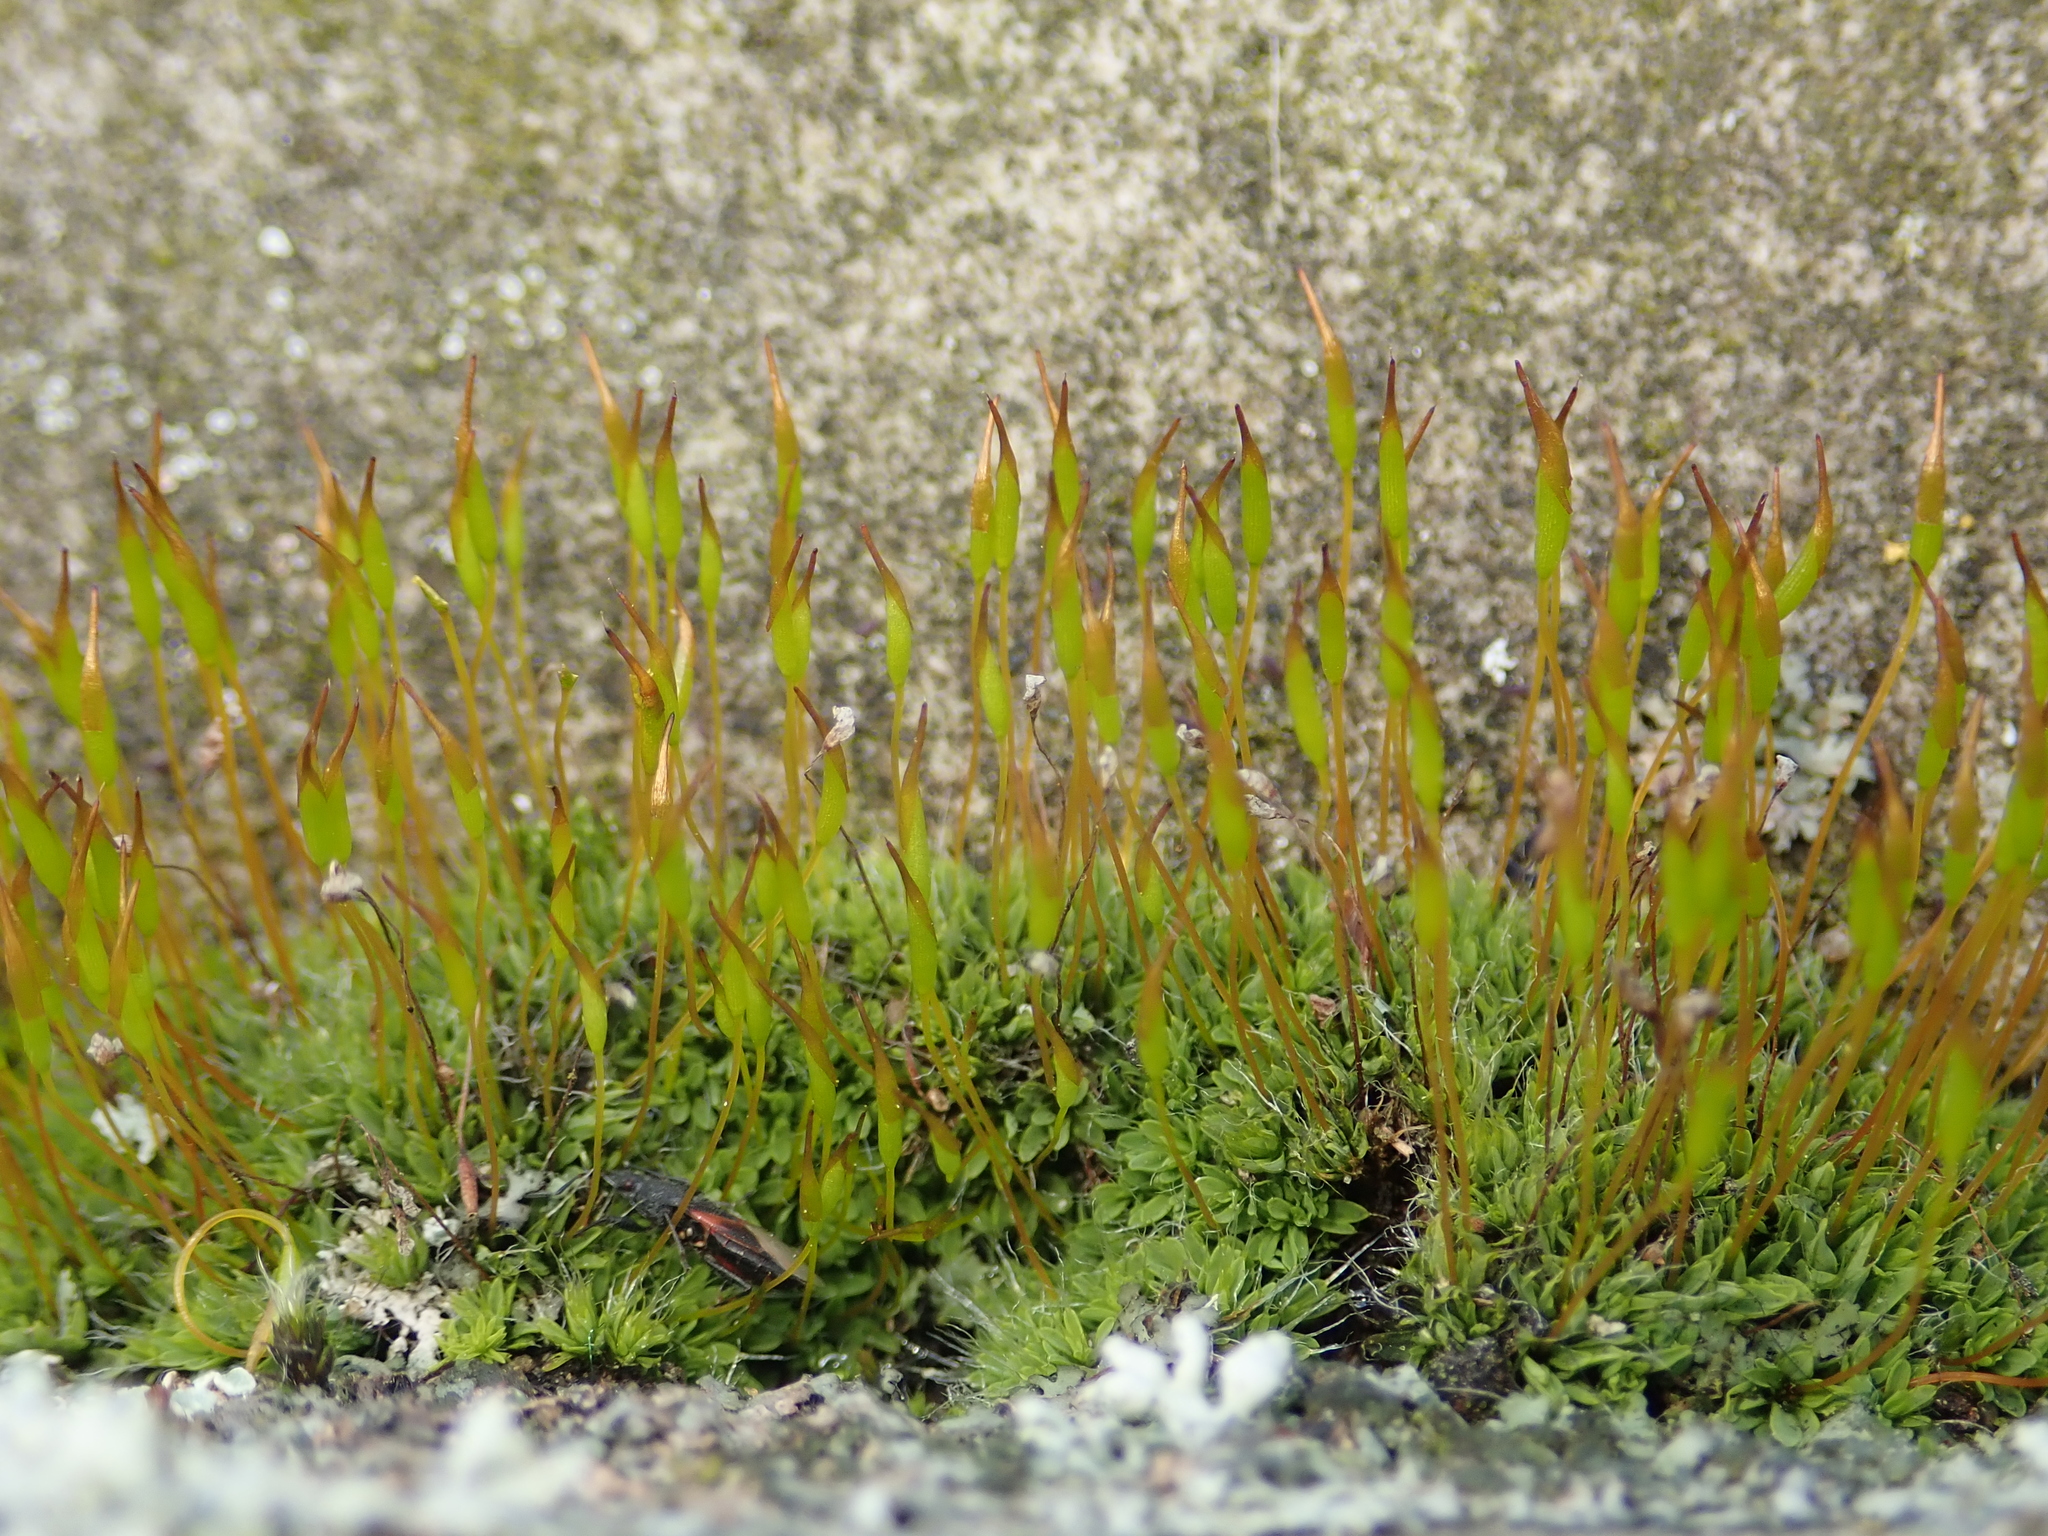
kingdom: Plantae
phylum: Bryophyta
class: Bryopsida
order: Pottiales
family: Pottiaceae
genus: Tortula
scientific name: Tortula muralis
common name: Wall screw-moss
